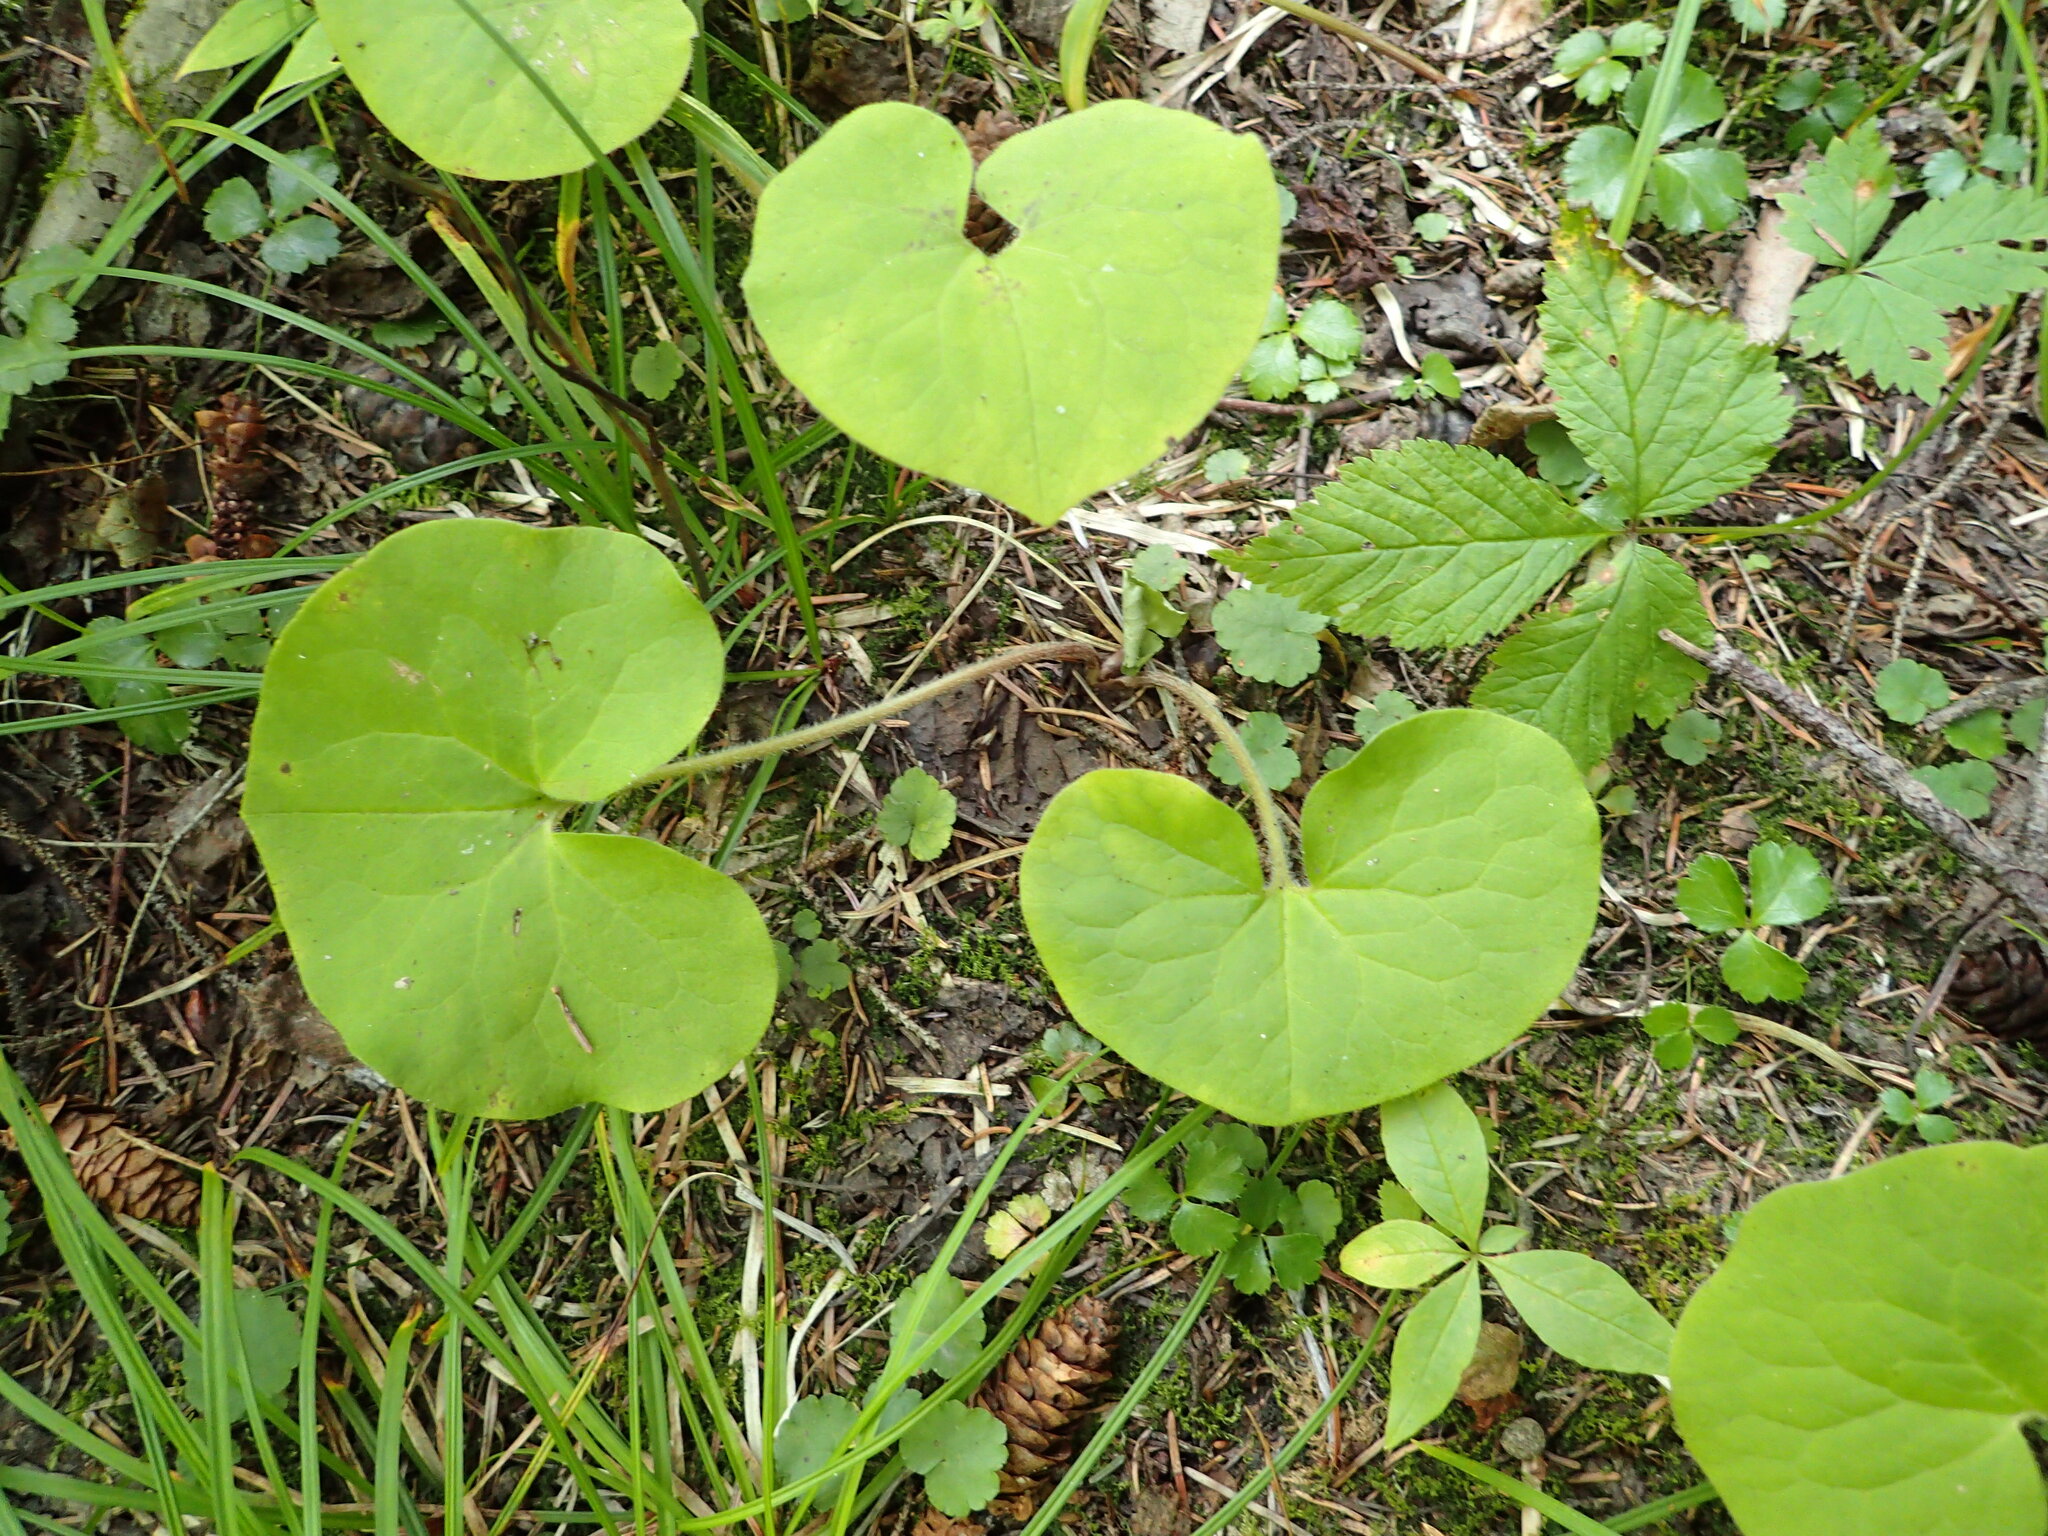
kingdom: Plantae
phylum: Tracheophyta
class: Magnoliopsida
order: Piperales
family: Aristolochiaceae
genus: Asarum
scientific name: Asarum canadense
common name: Wild ginger
